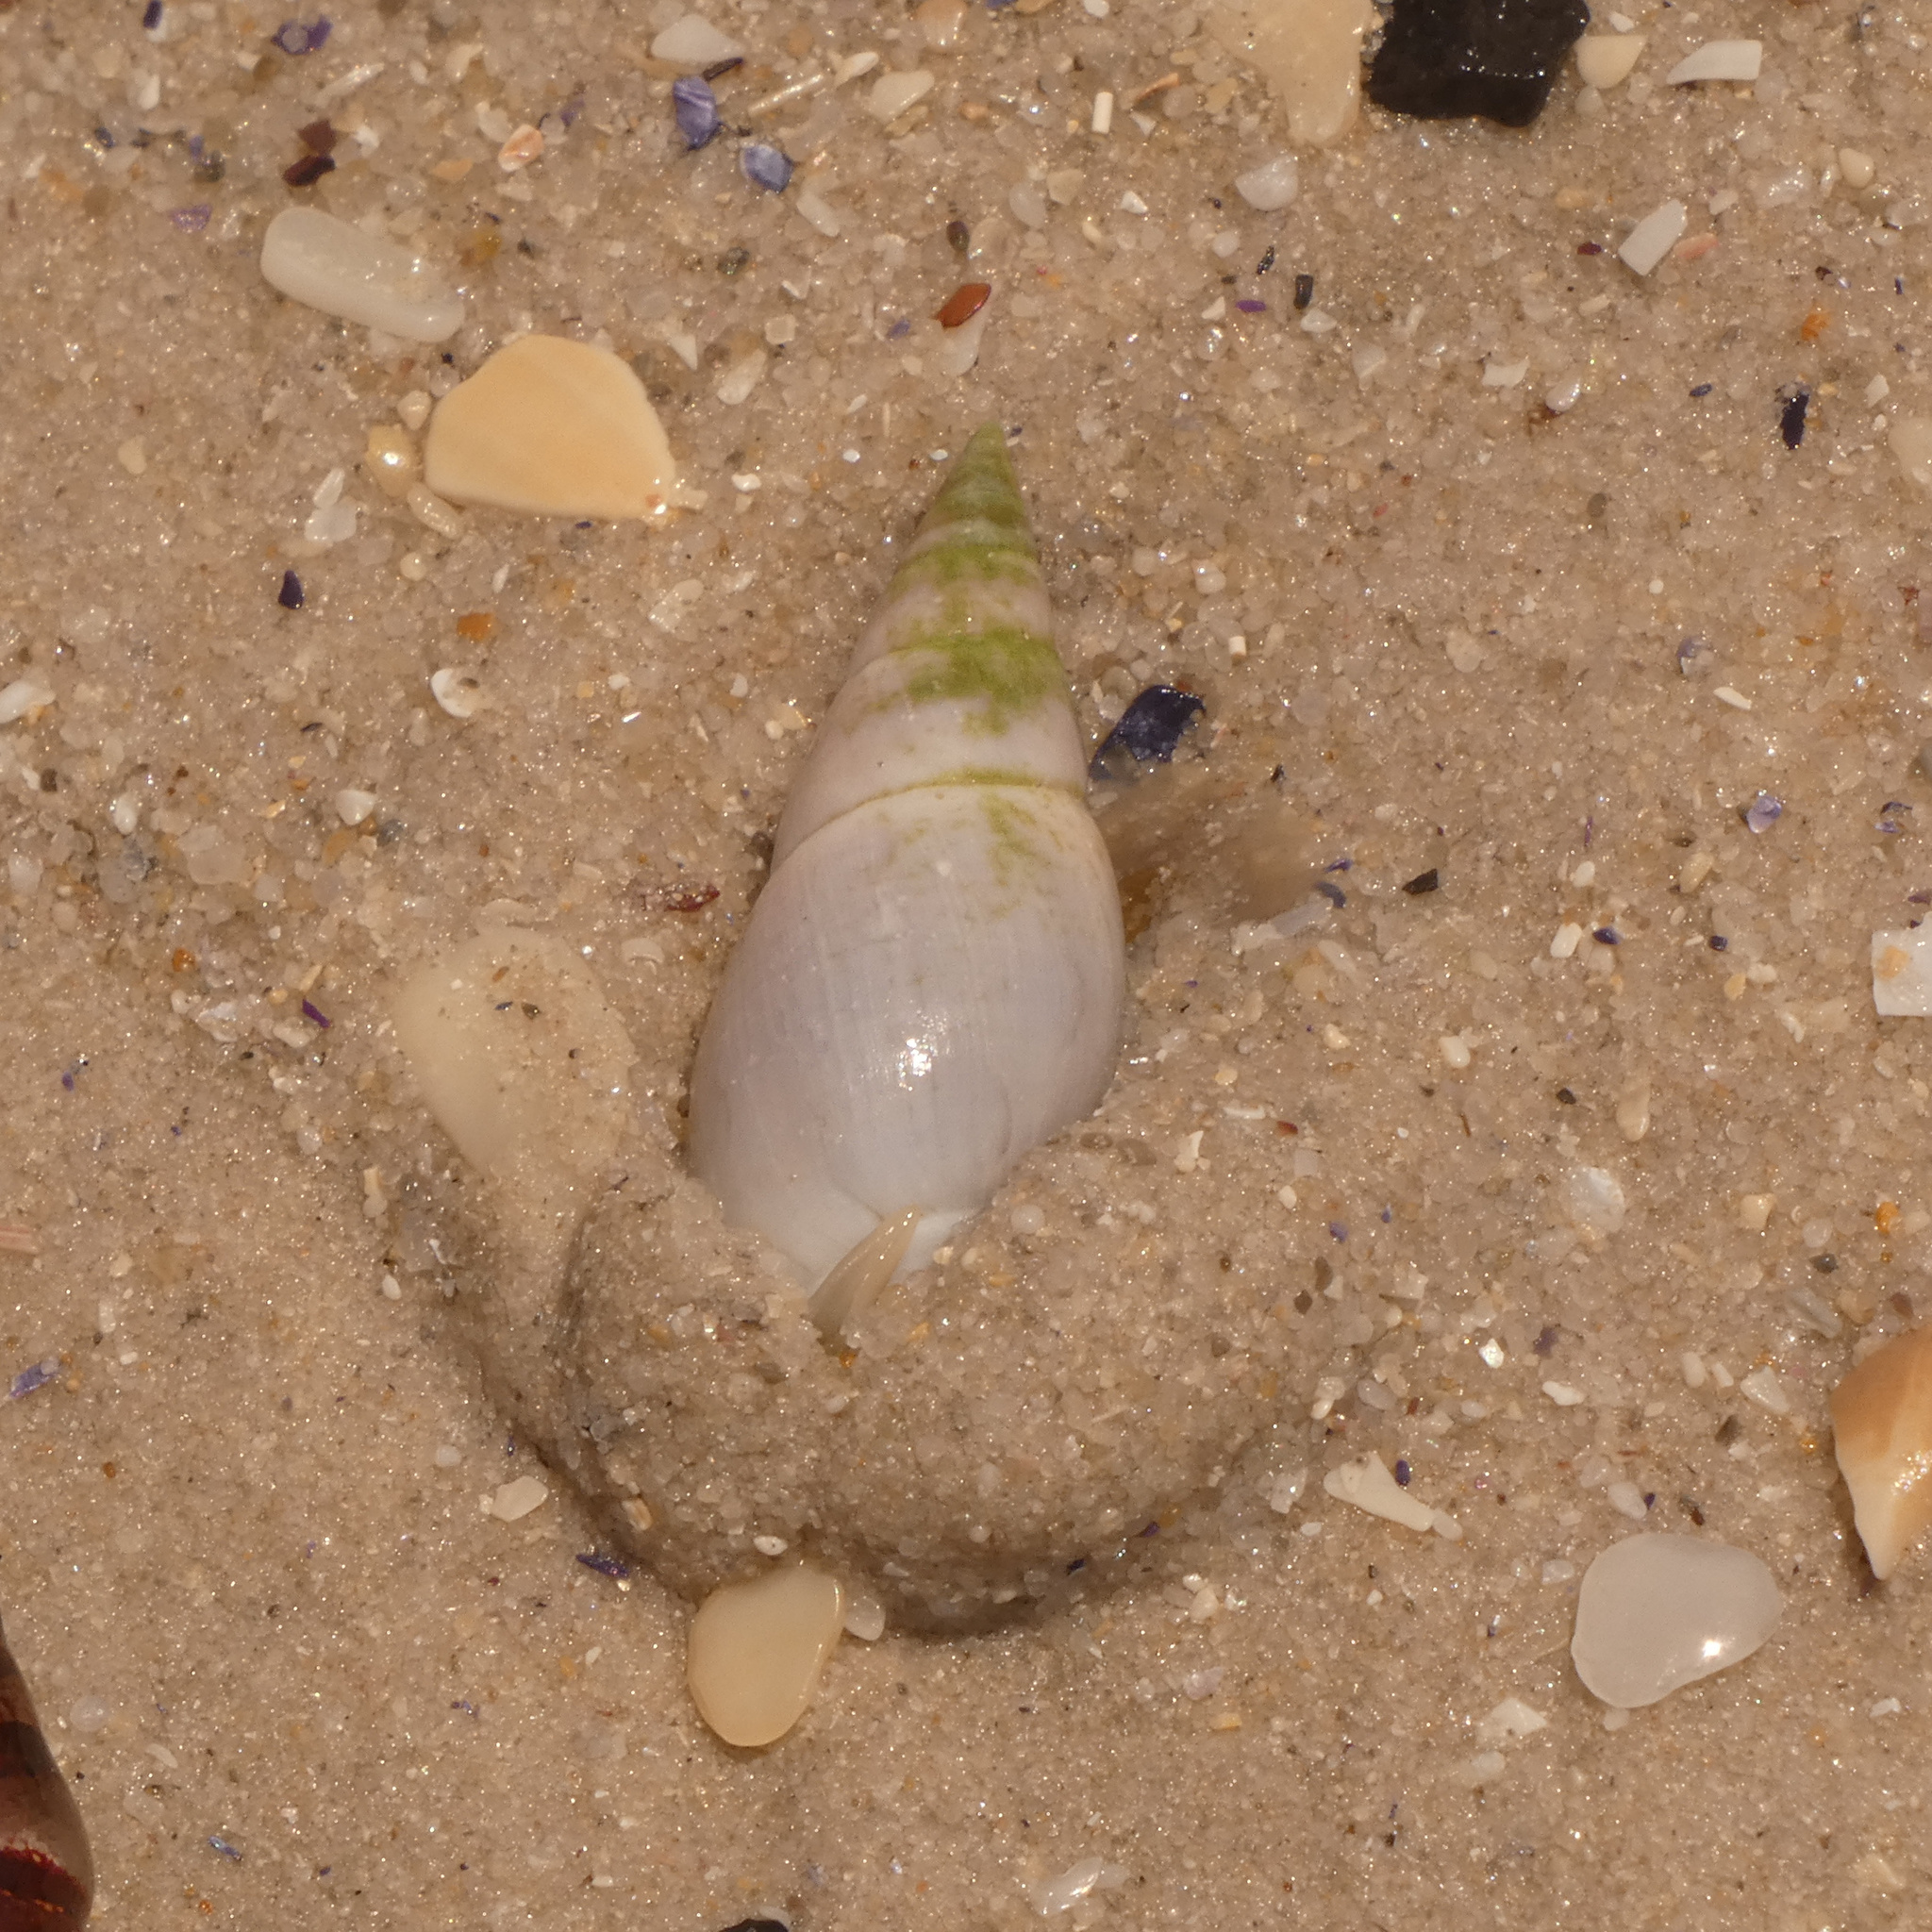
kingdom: Animalia
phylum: Mollusca
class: Gastropoda
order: Neogastropoda
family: Nassariidae
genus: Bullia
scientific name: Bullia rhodostoma
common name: Smooth plough shell
